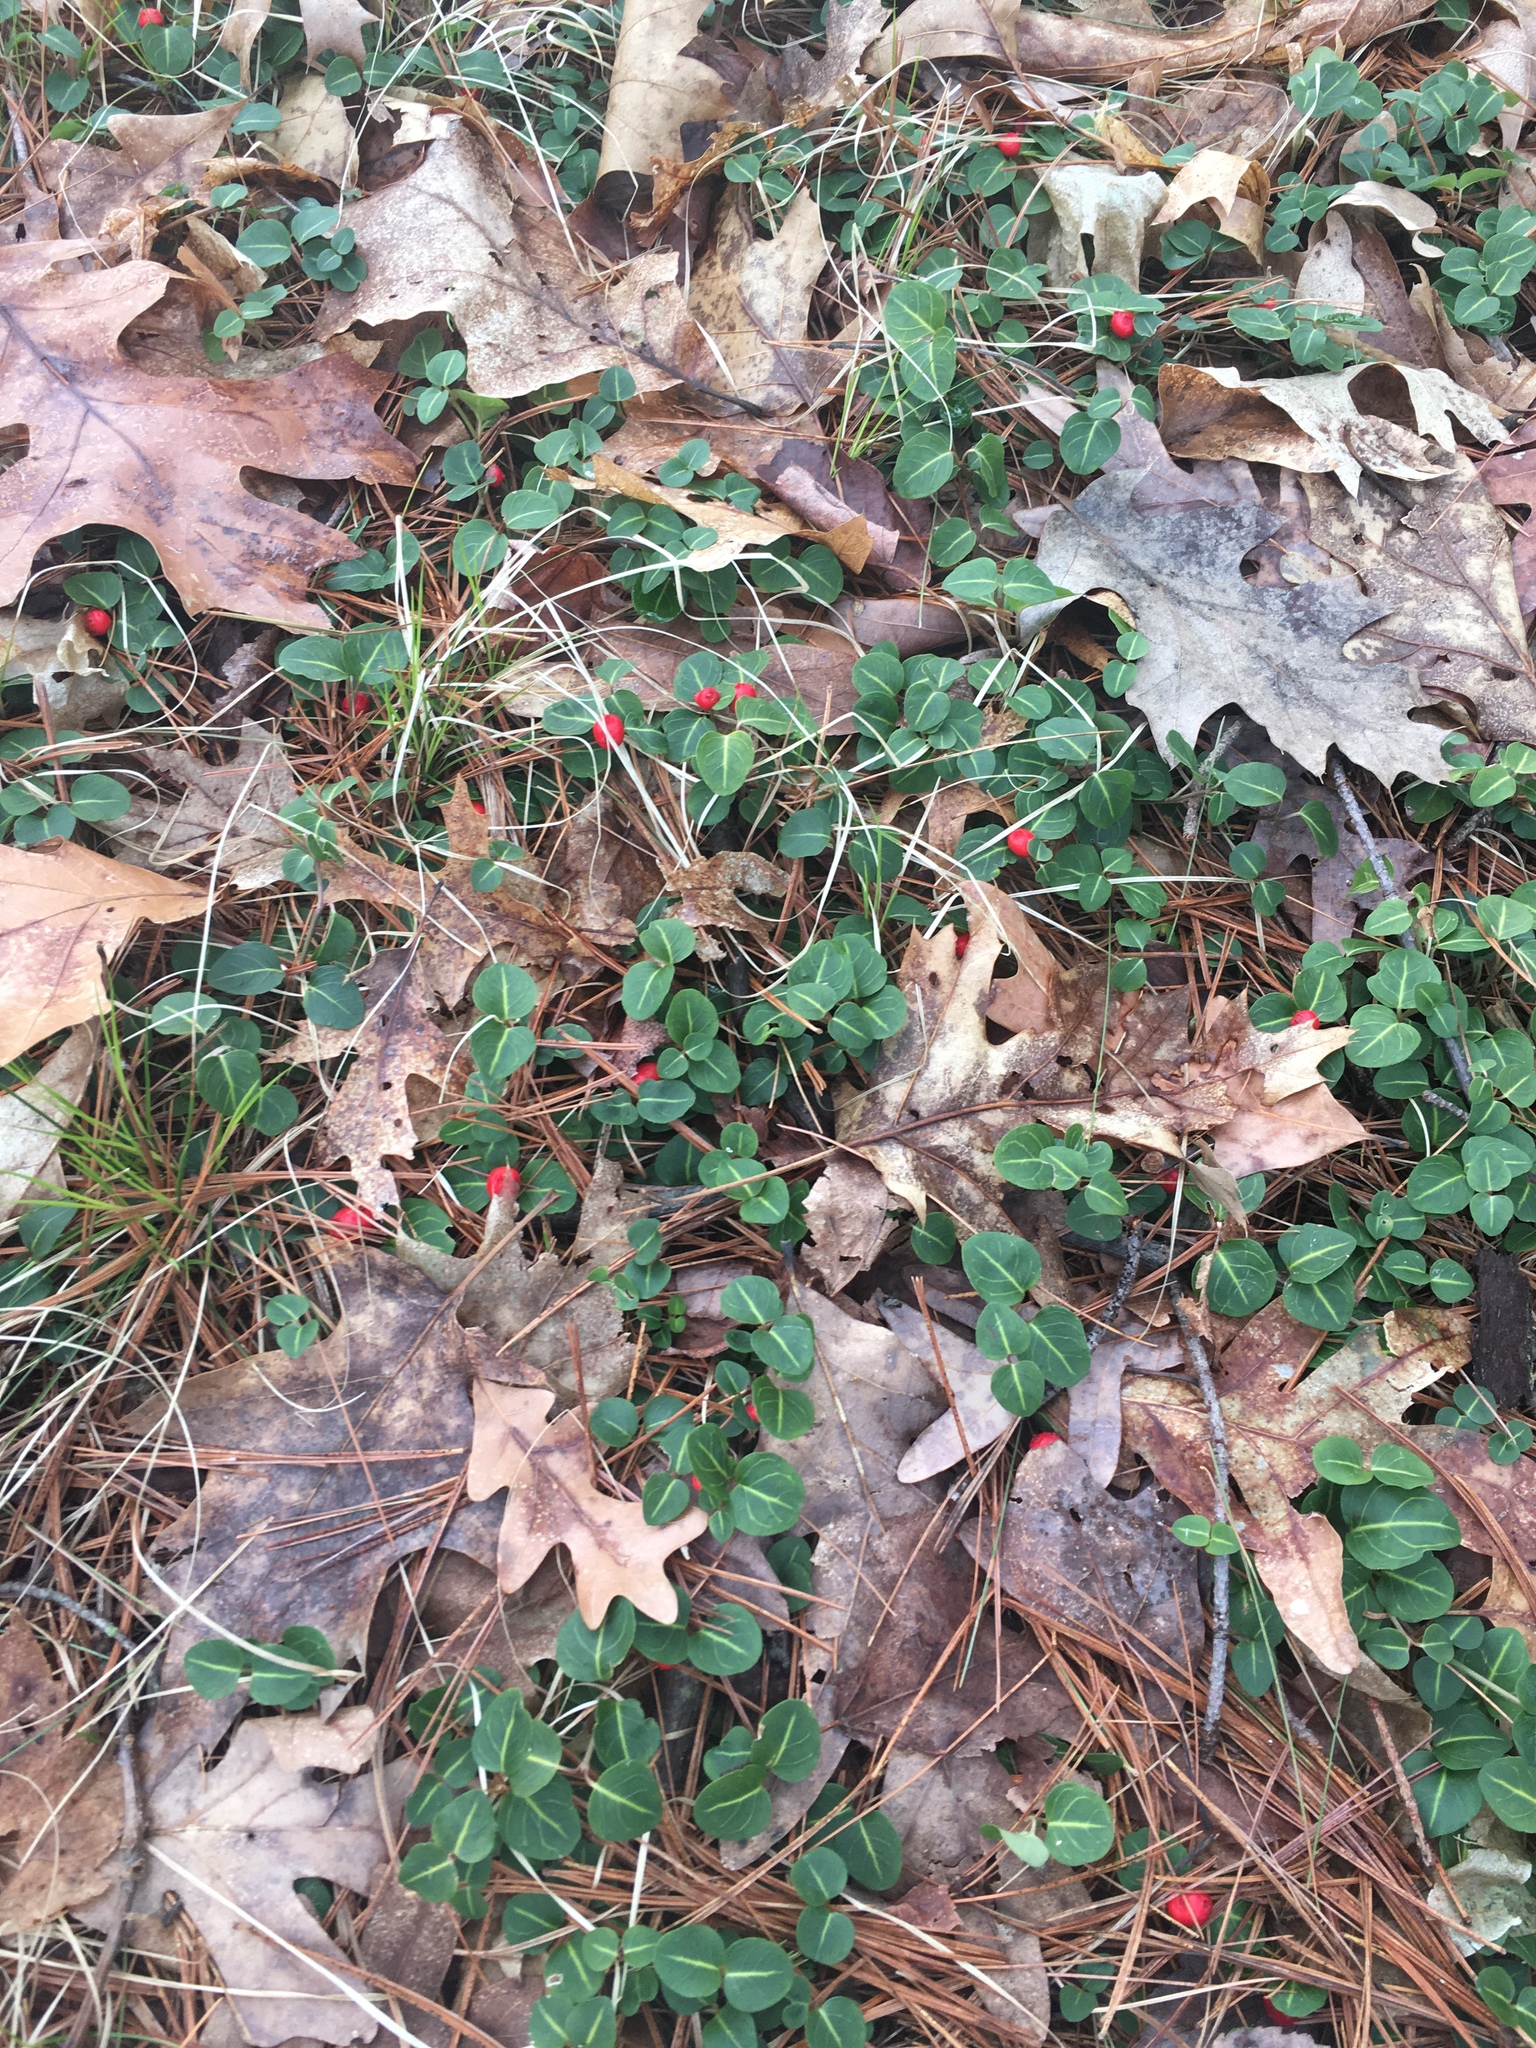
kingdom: Plantae
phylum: Tracheophyta
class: Magnoliopsida
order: Gentianales
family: Rubiaceae
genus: Mitchella
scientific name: Mitchella repens
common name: Partridge-berry
